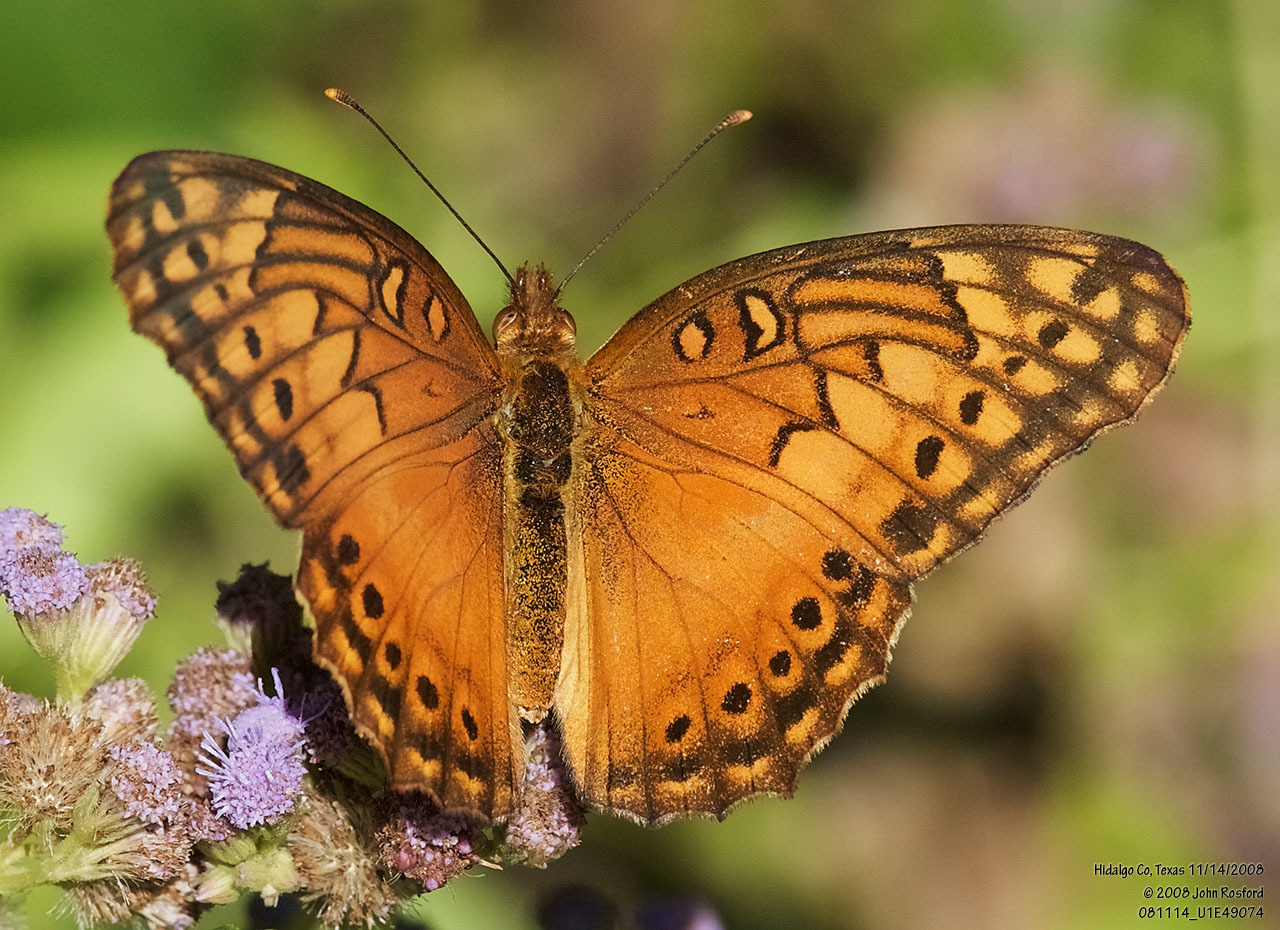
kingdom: Animalia
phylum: Arthropoda
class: Insecta
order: Lepidoptera
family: Nymphalidae
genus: Euptoieta
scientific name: Euptoieta hegesia
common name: Mexican fritillary
